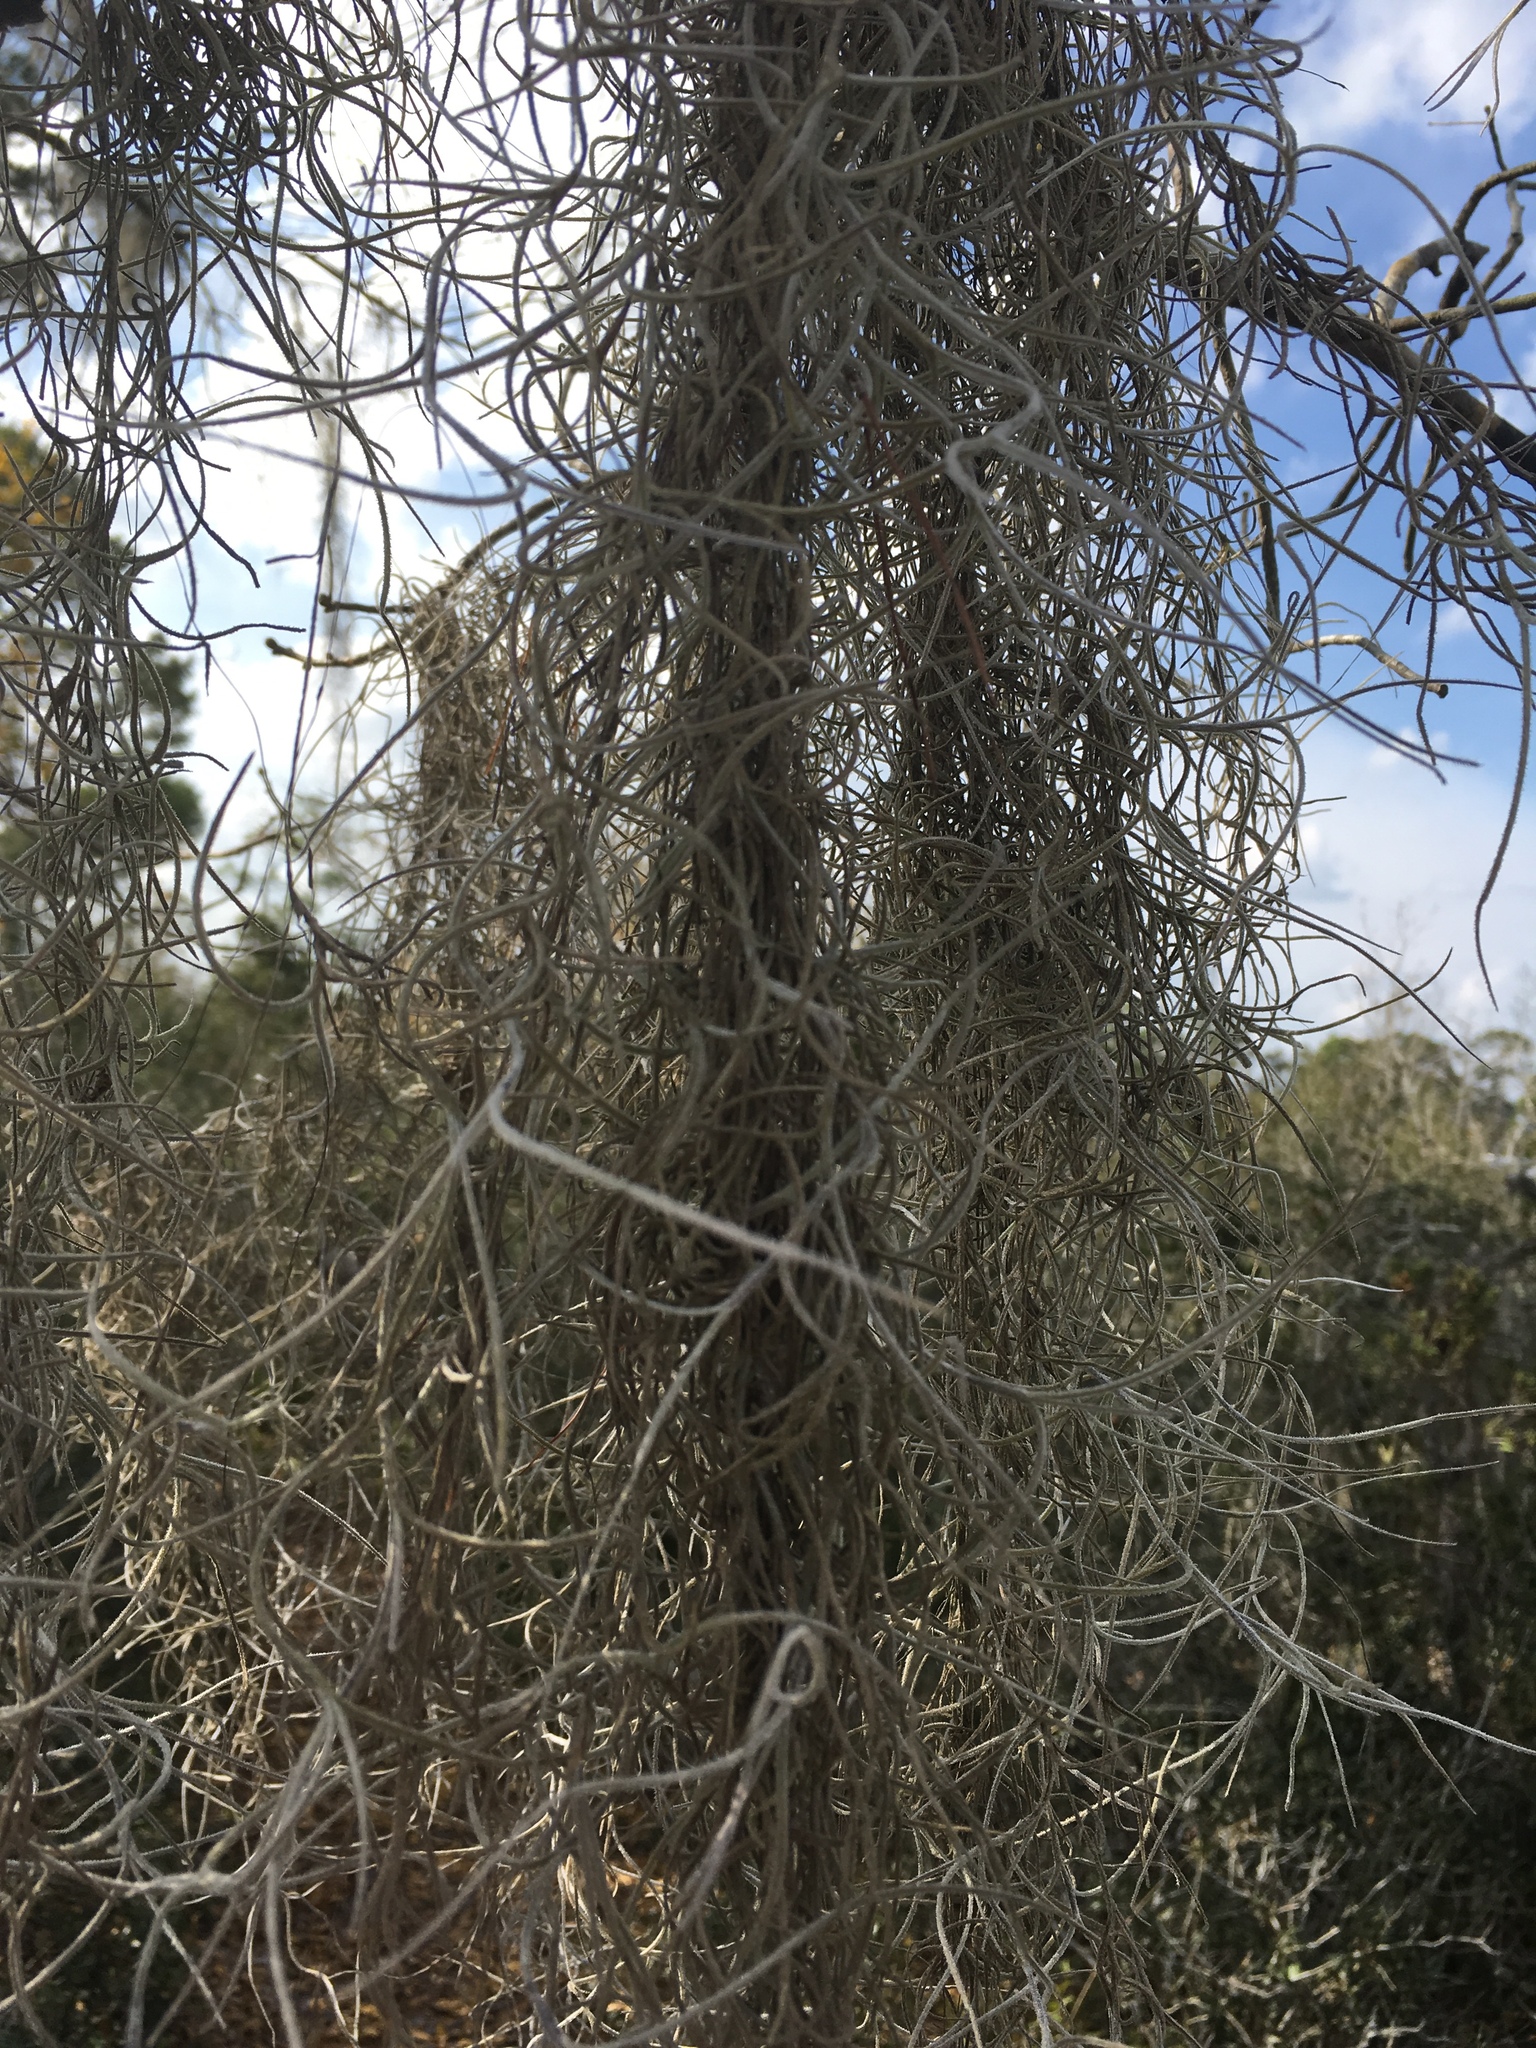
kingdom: Plantae
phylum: Tracheophyta
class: Liliopsida
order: Poales
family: Bromeliaceae
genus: Tillandsia
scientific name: Tillandsia usneoides
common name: Spanish moss
